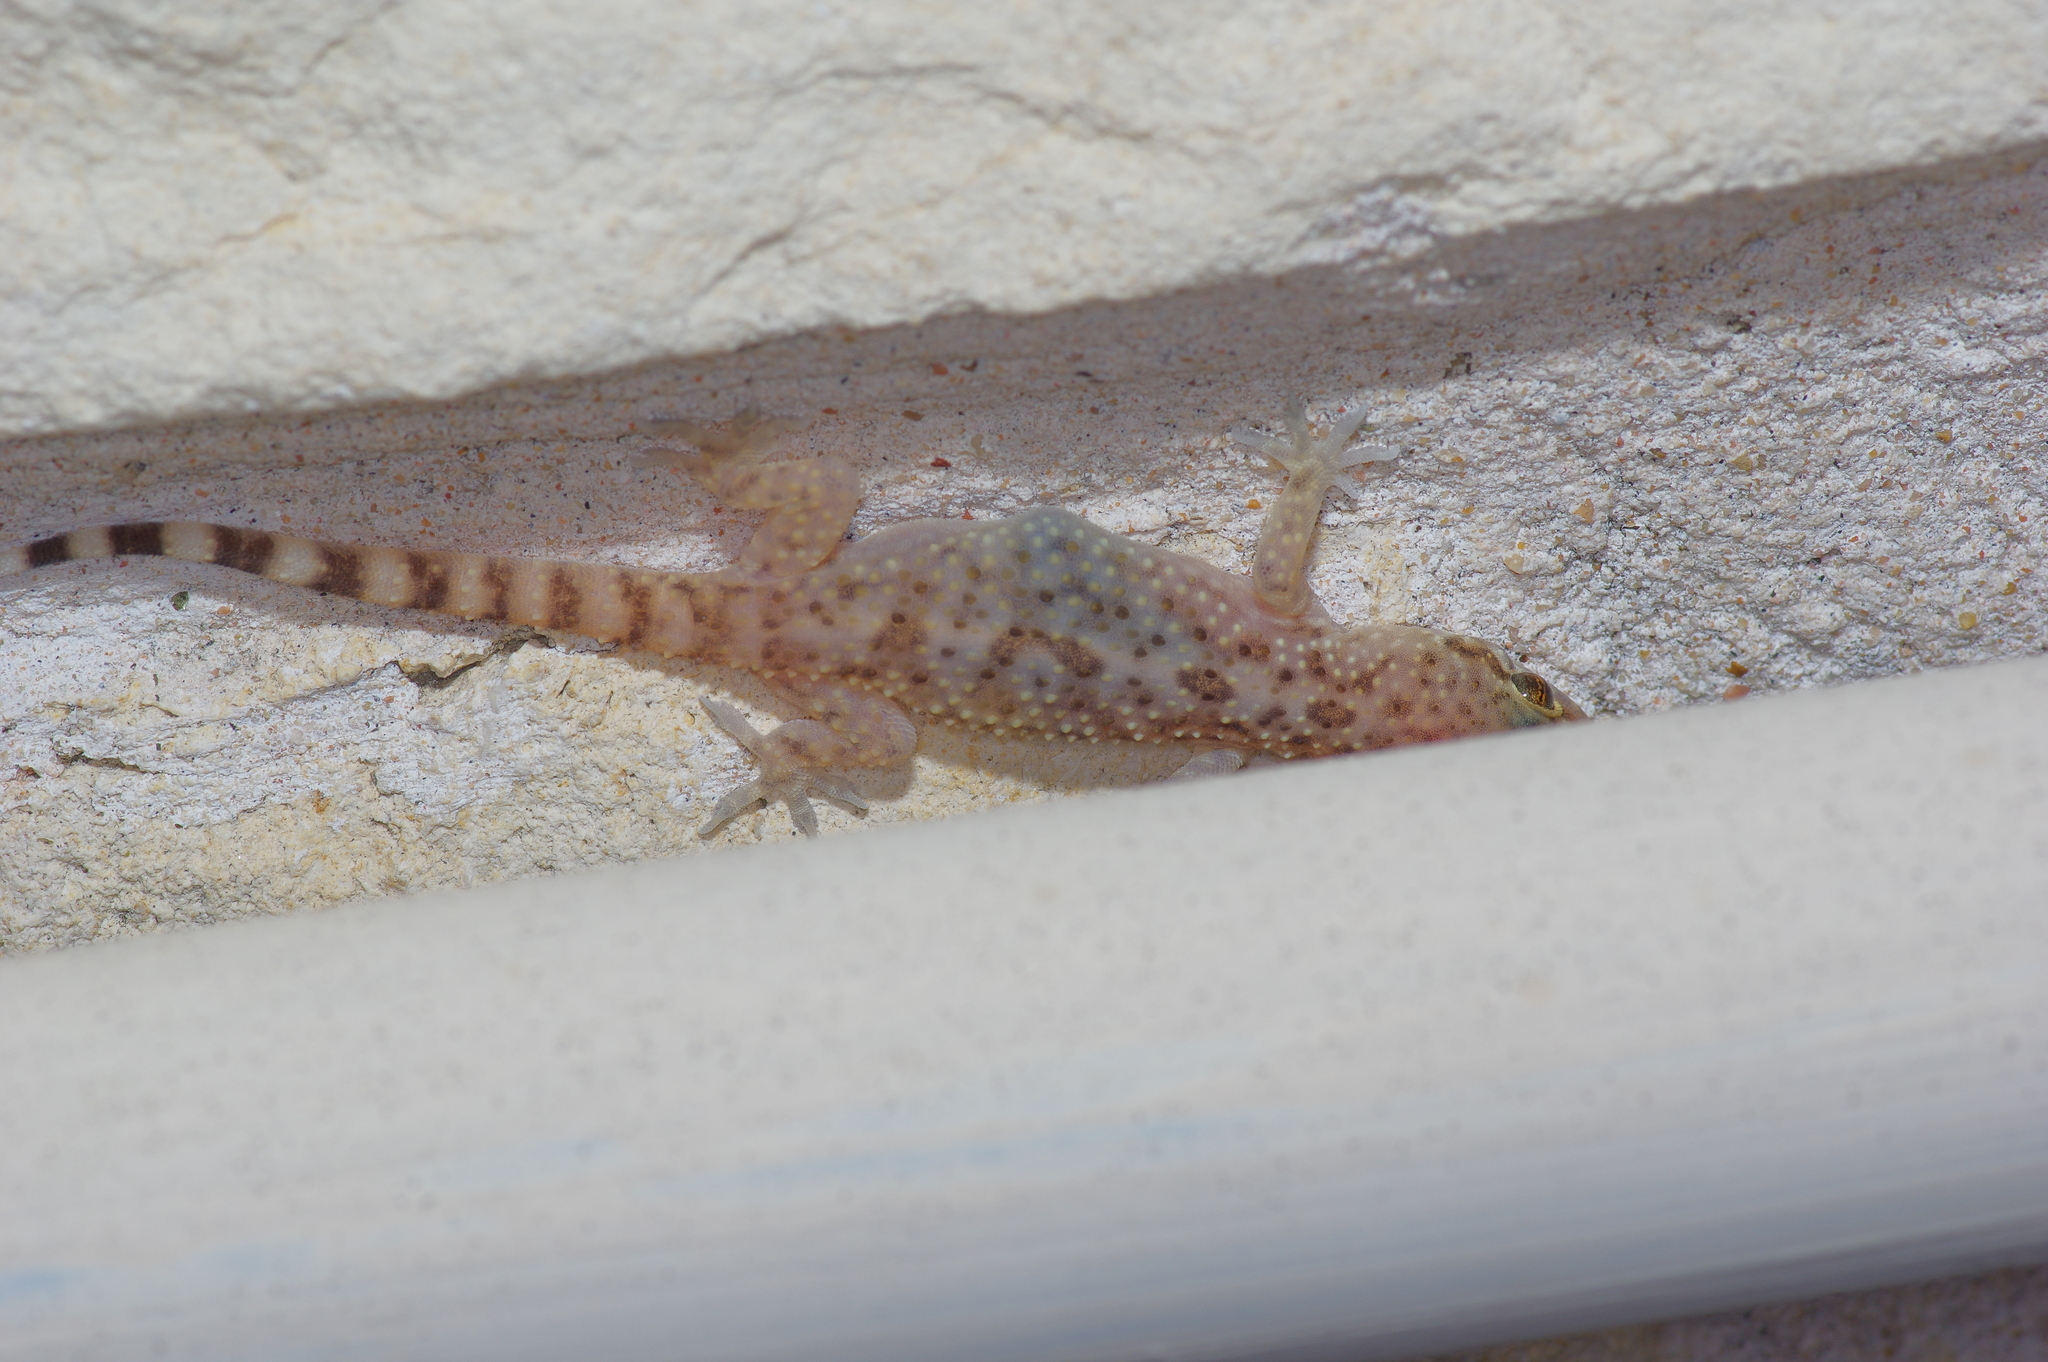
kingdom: Animalia
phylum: Chordata
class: Squamata
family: Gekkonidae
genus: Hemidactylus
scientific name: Hemidactylus turcicus
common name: Turkish gecko
